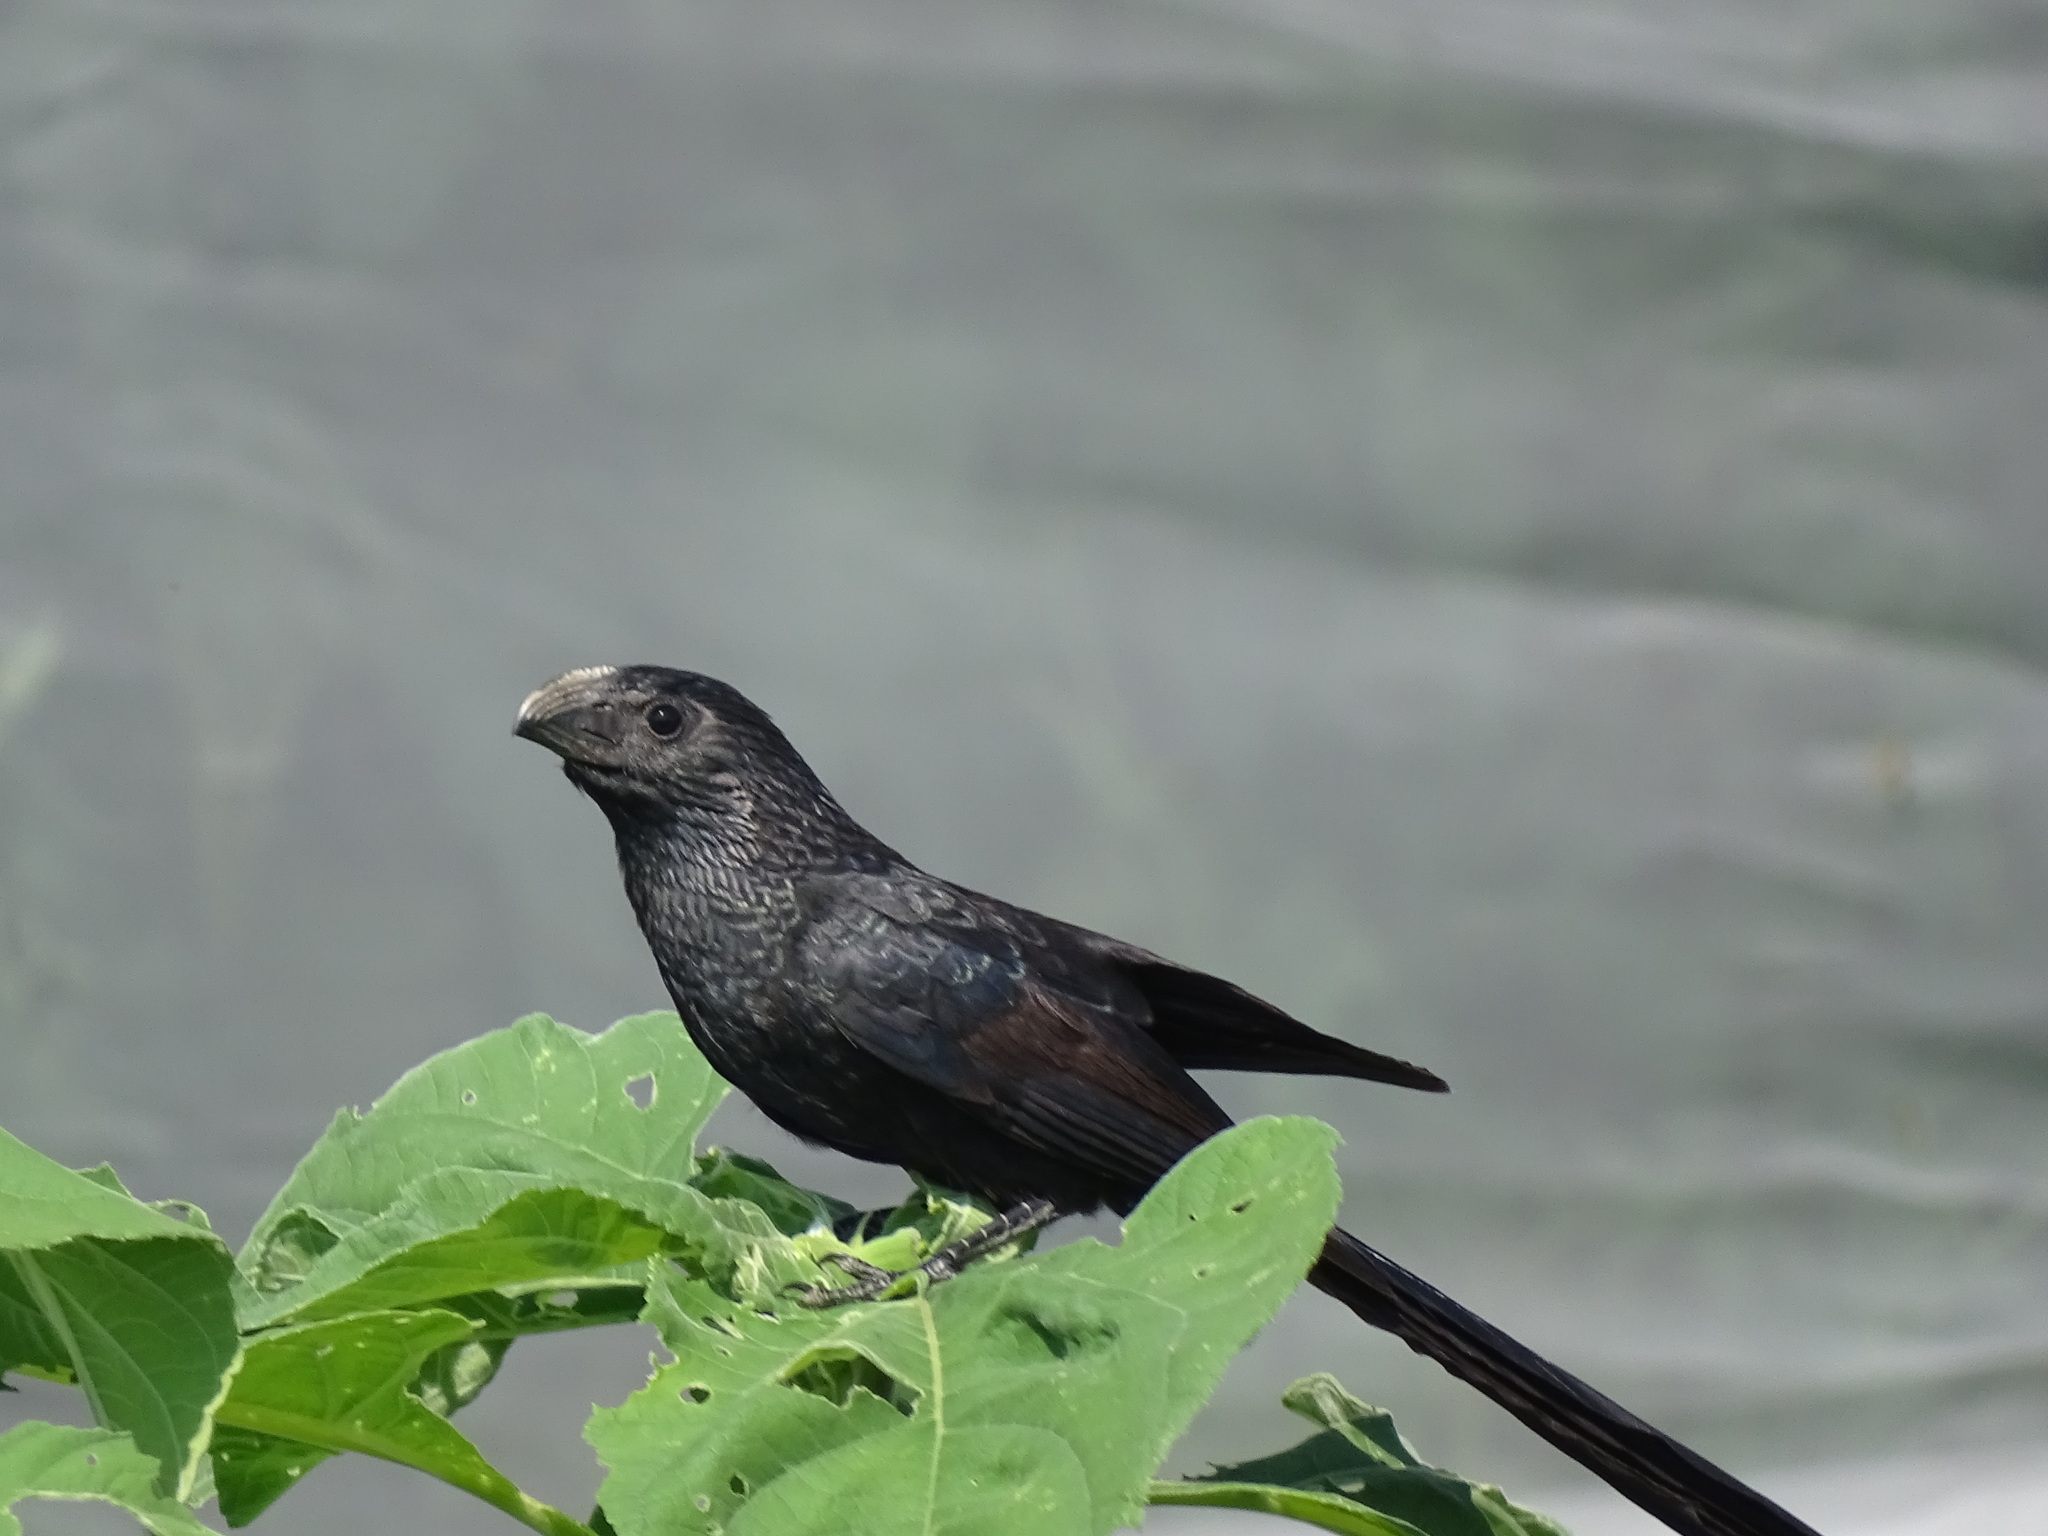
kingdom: Animalia
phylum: Chordata
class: Aves
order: Cuculiformes
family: Cuculidae
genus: Crotophaga
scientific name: Crotophaga sulcirostris
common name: Groove-billed ani
